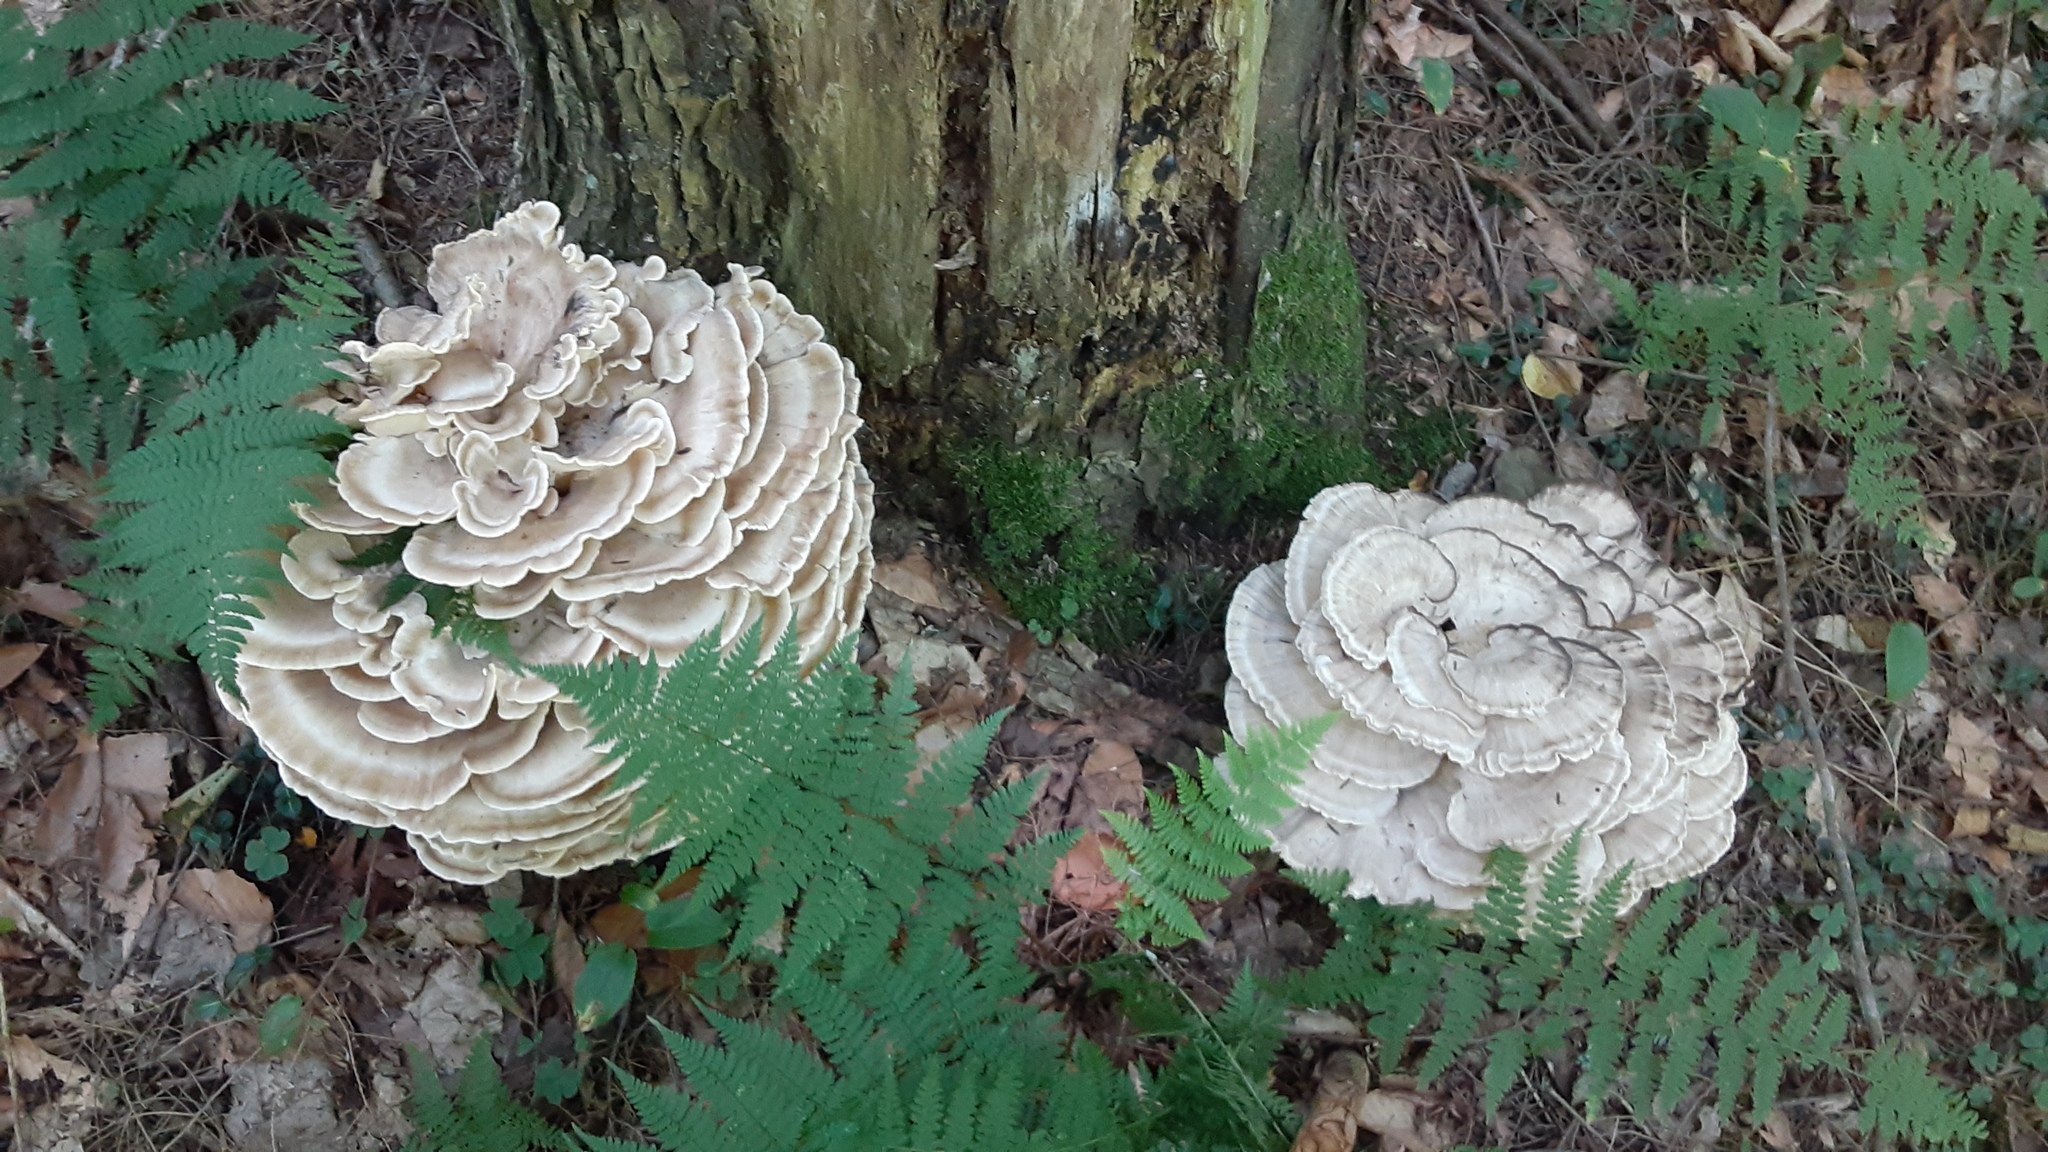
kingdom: Fungi
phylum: Basidiomycota
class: Agaricomycetes
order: Polyporales
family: Meripilaceae
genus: Meripilus
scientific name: Meripilus sumstinei
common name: Black-staining polypore
